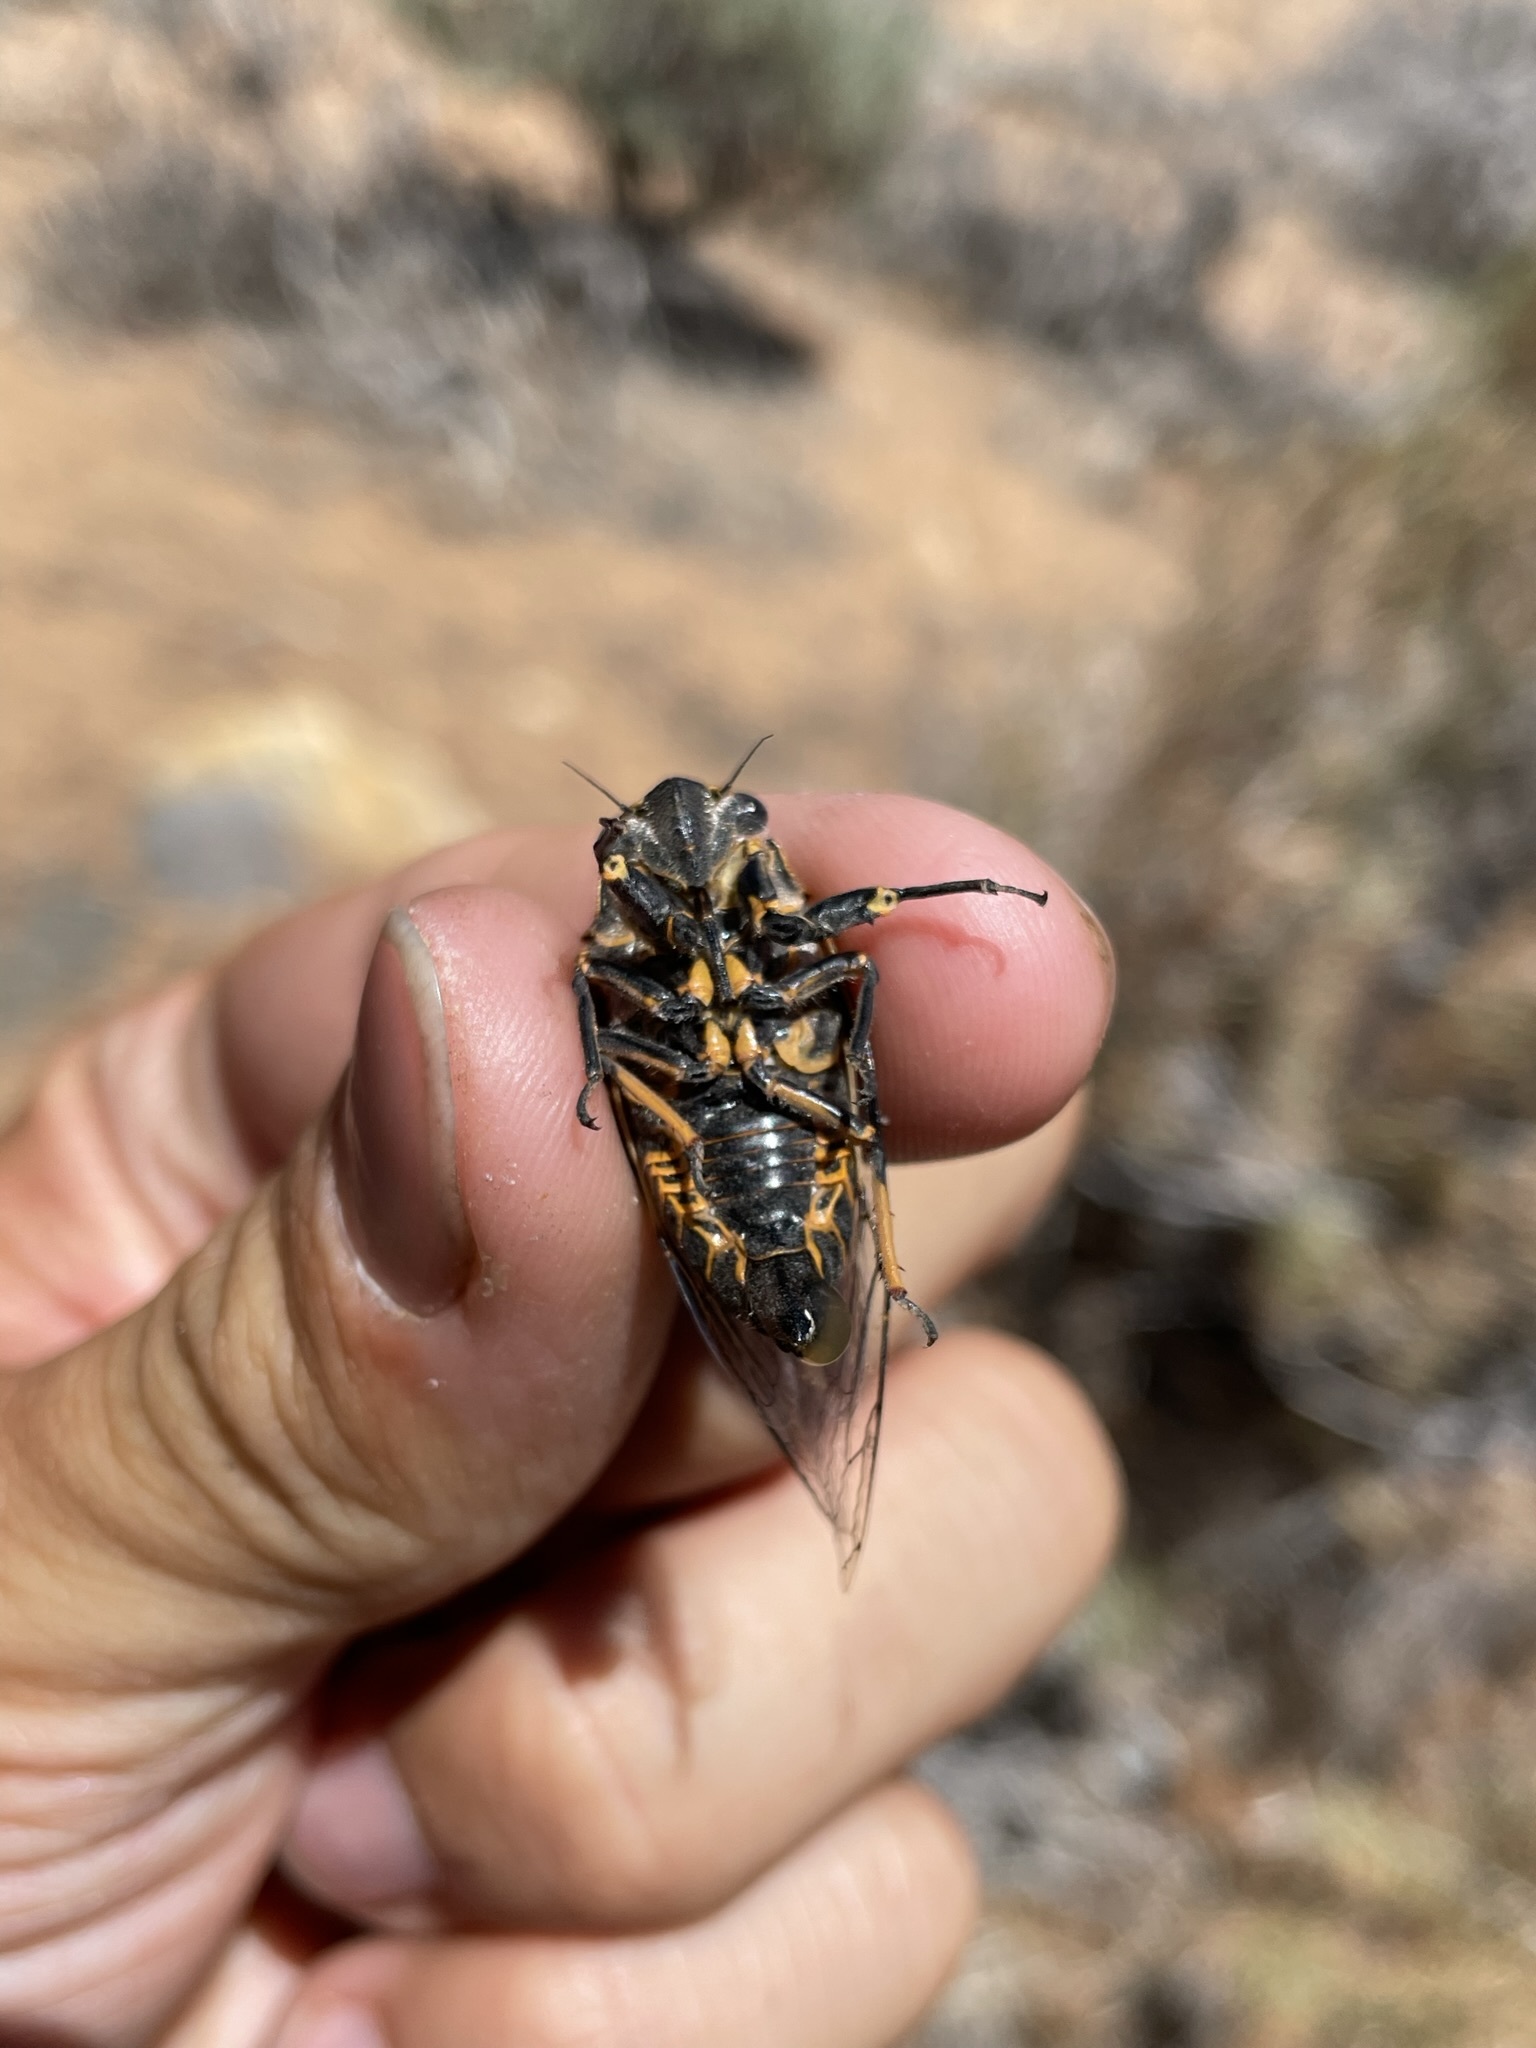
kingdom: Animalia
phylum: Arthropoda
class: Insecta
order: Hemiptera
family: Cicadidae
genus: Okanagana
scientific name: Okanagana bella
